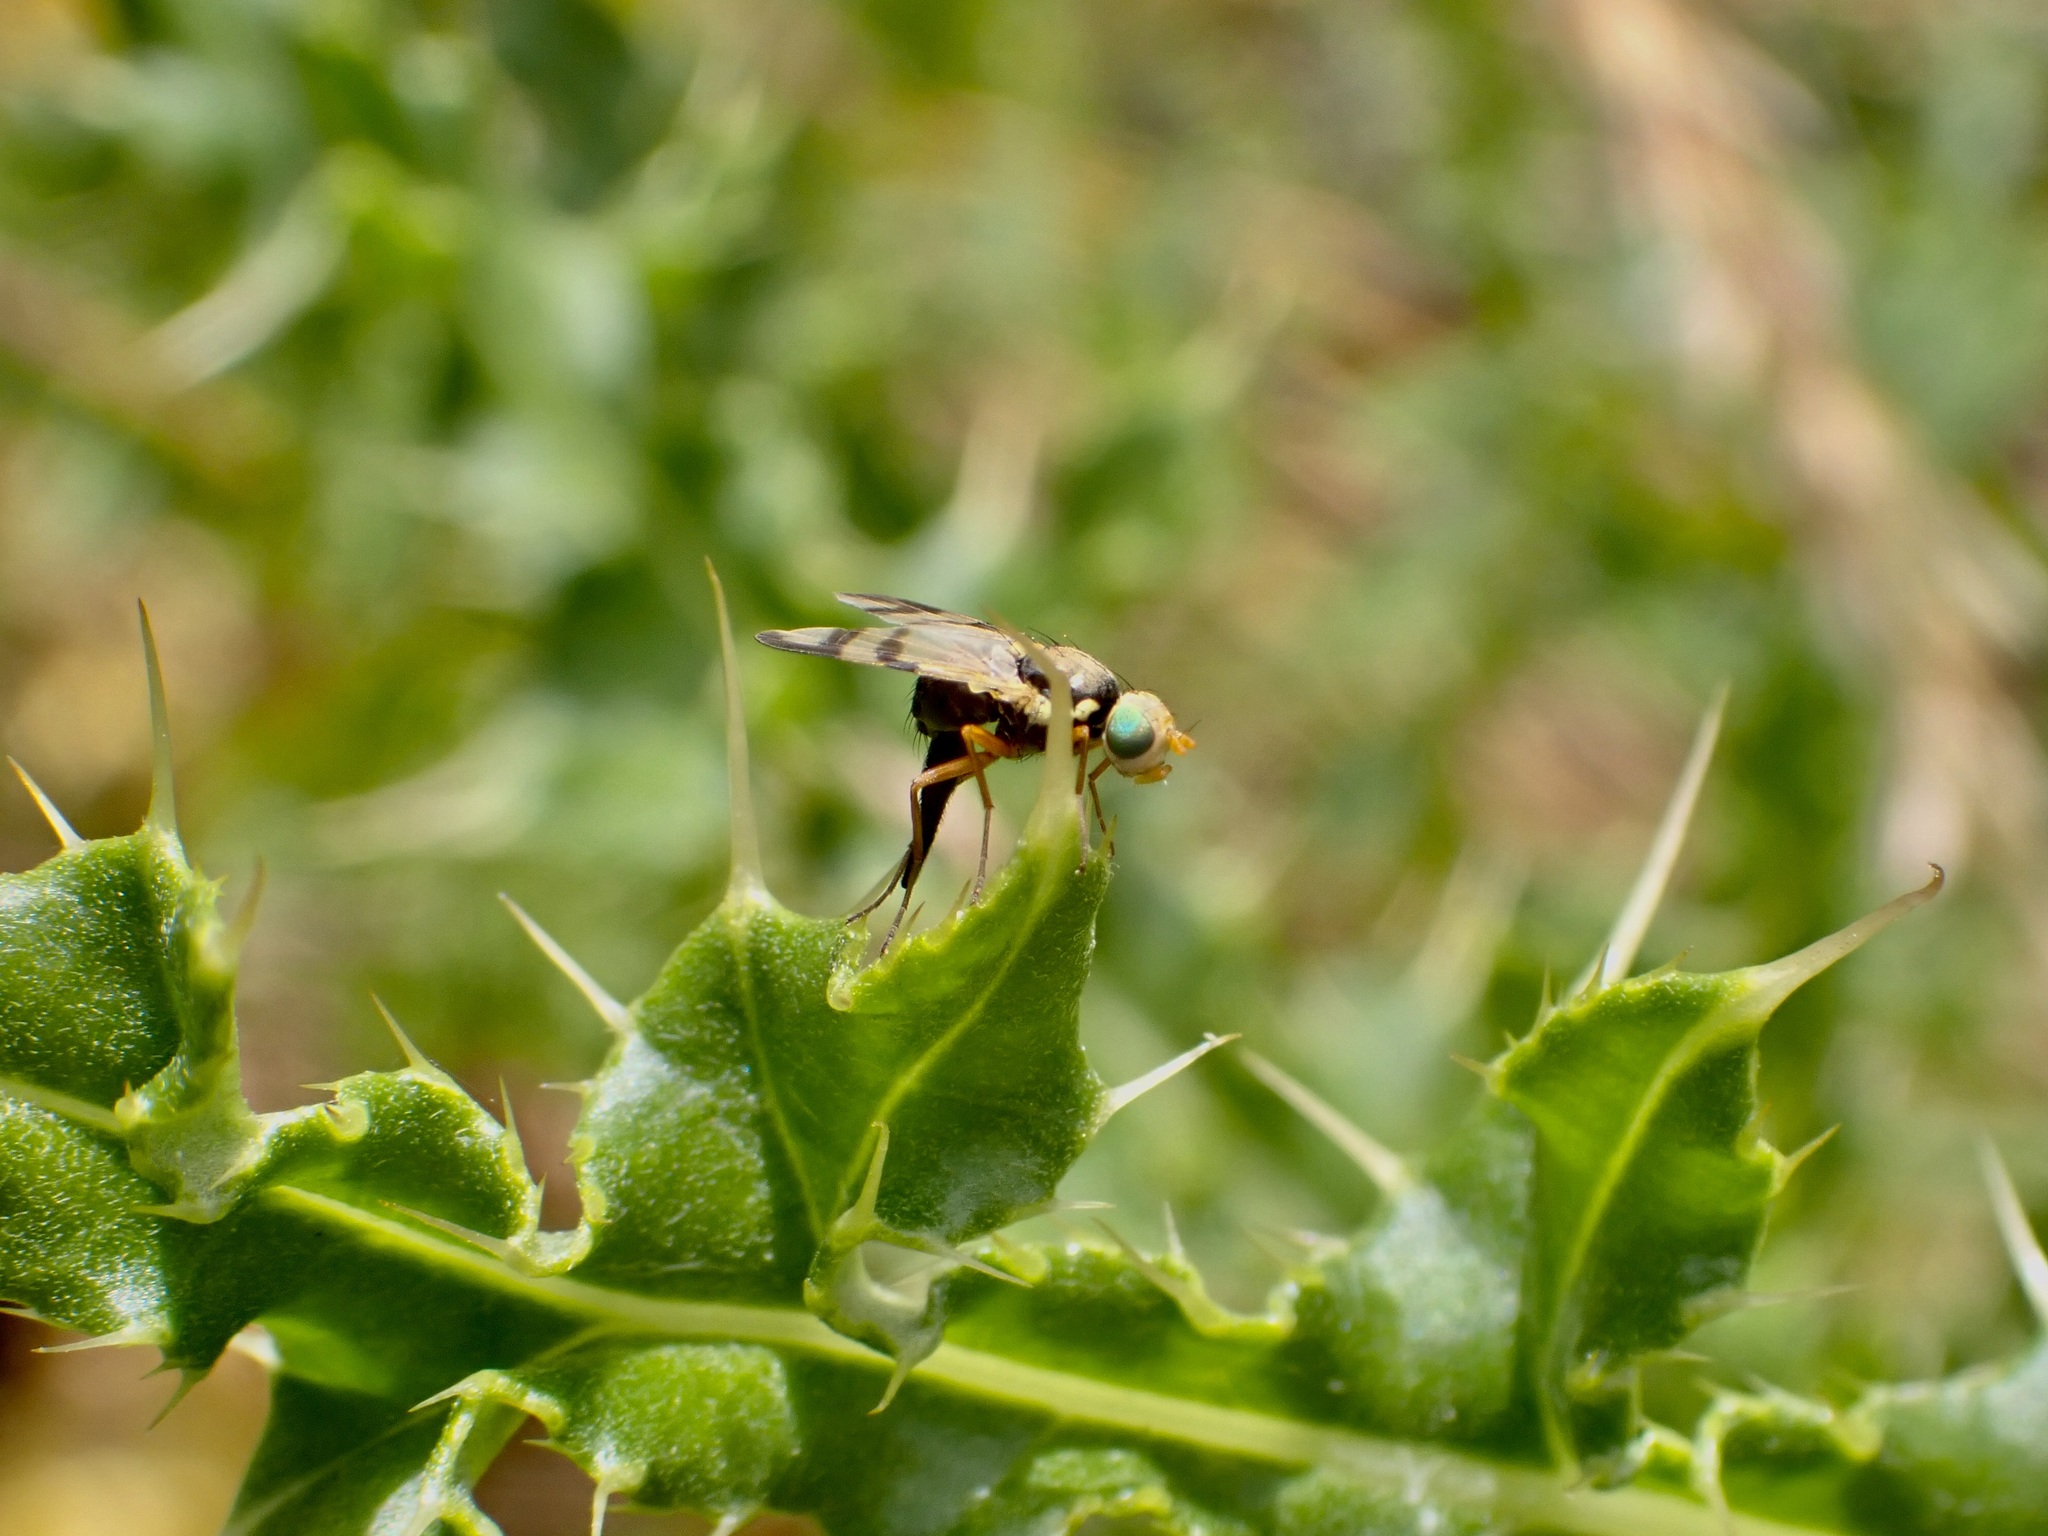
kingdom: Animalia
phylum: Arthropoda
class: Insecta
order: Diptera
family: Tephritidae
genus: Urophora
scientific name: Urophora stylata
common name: Fruit fly
